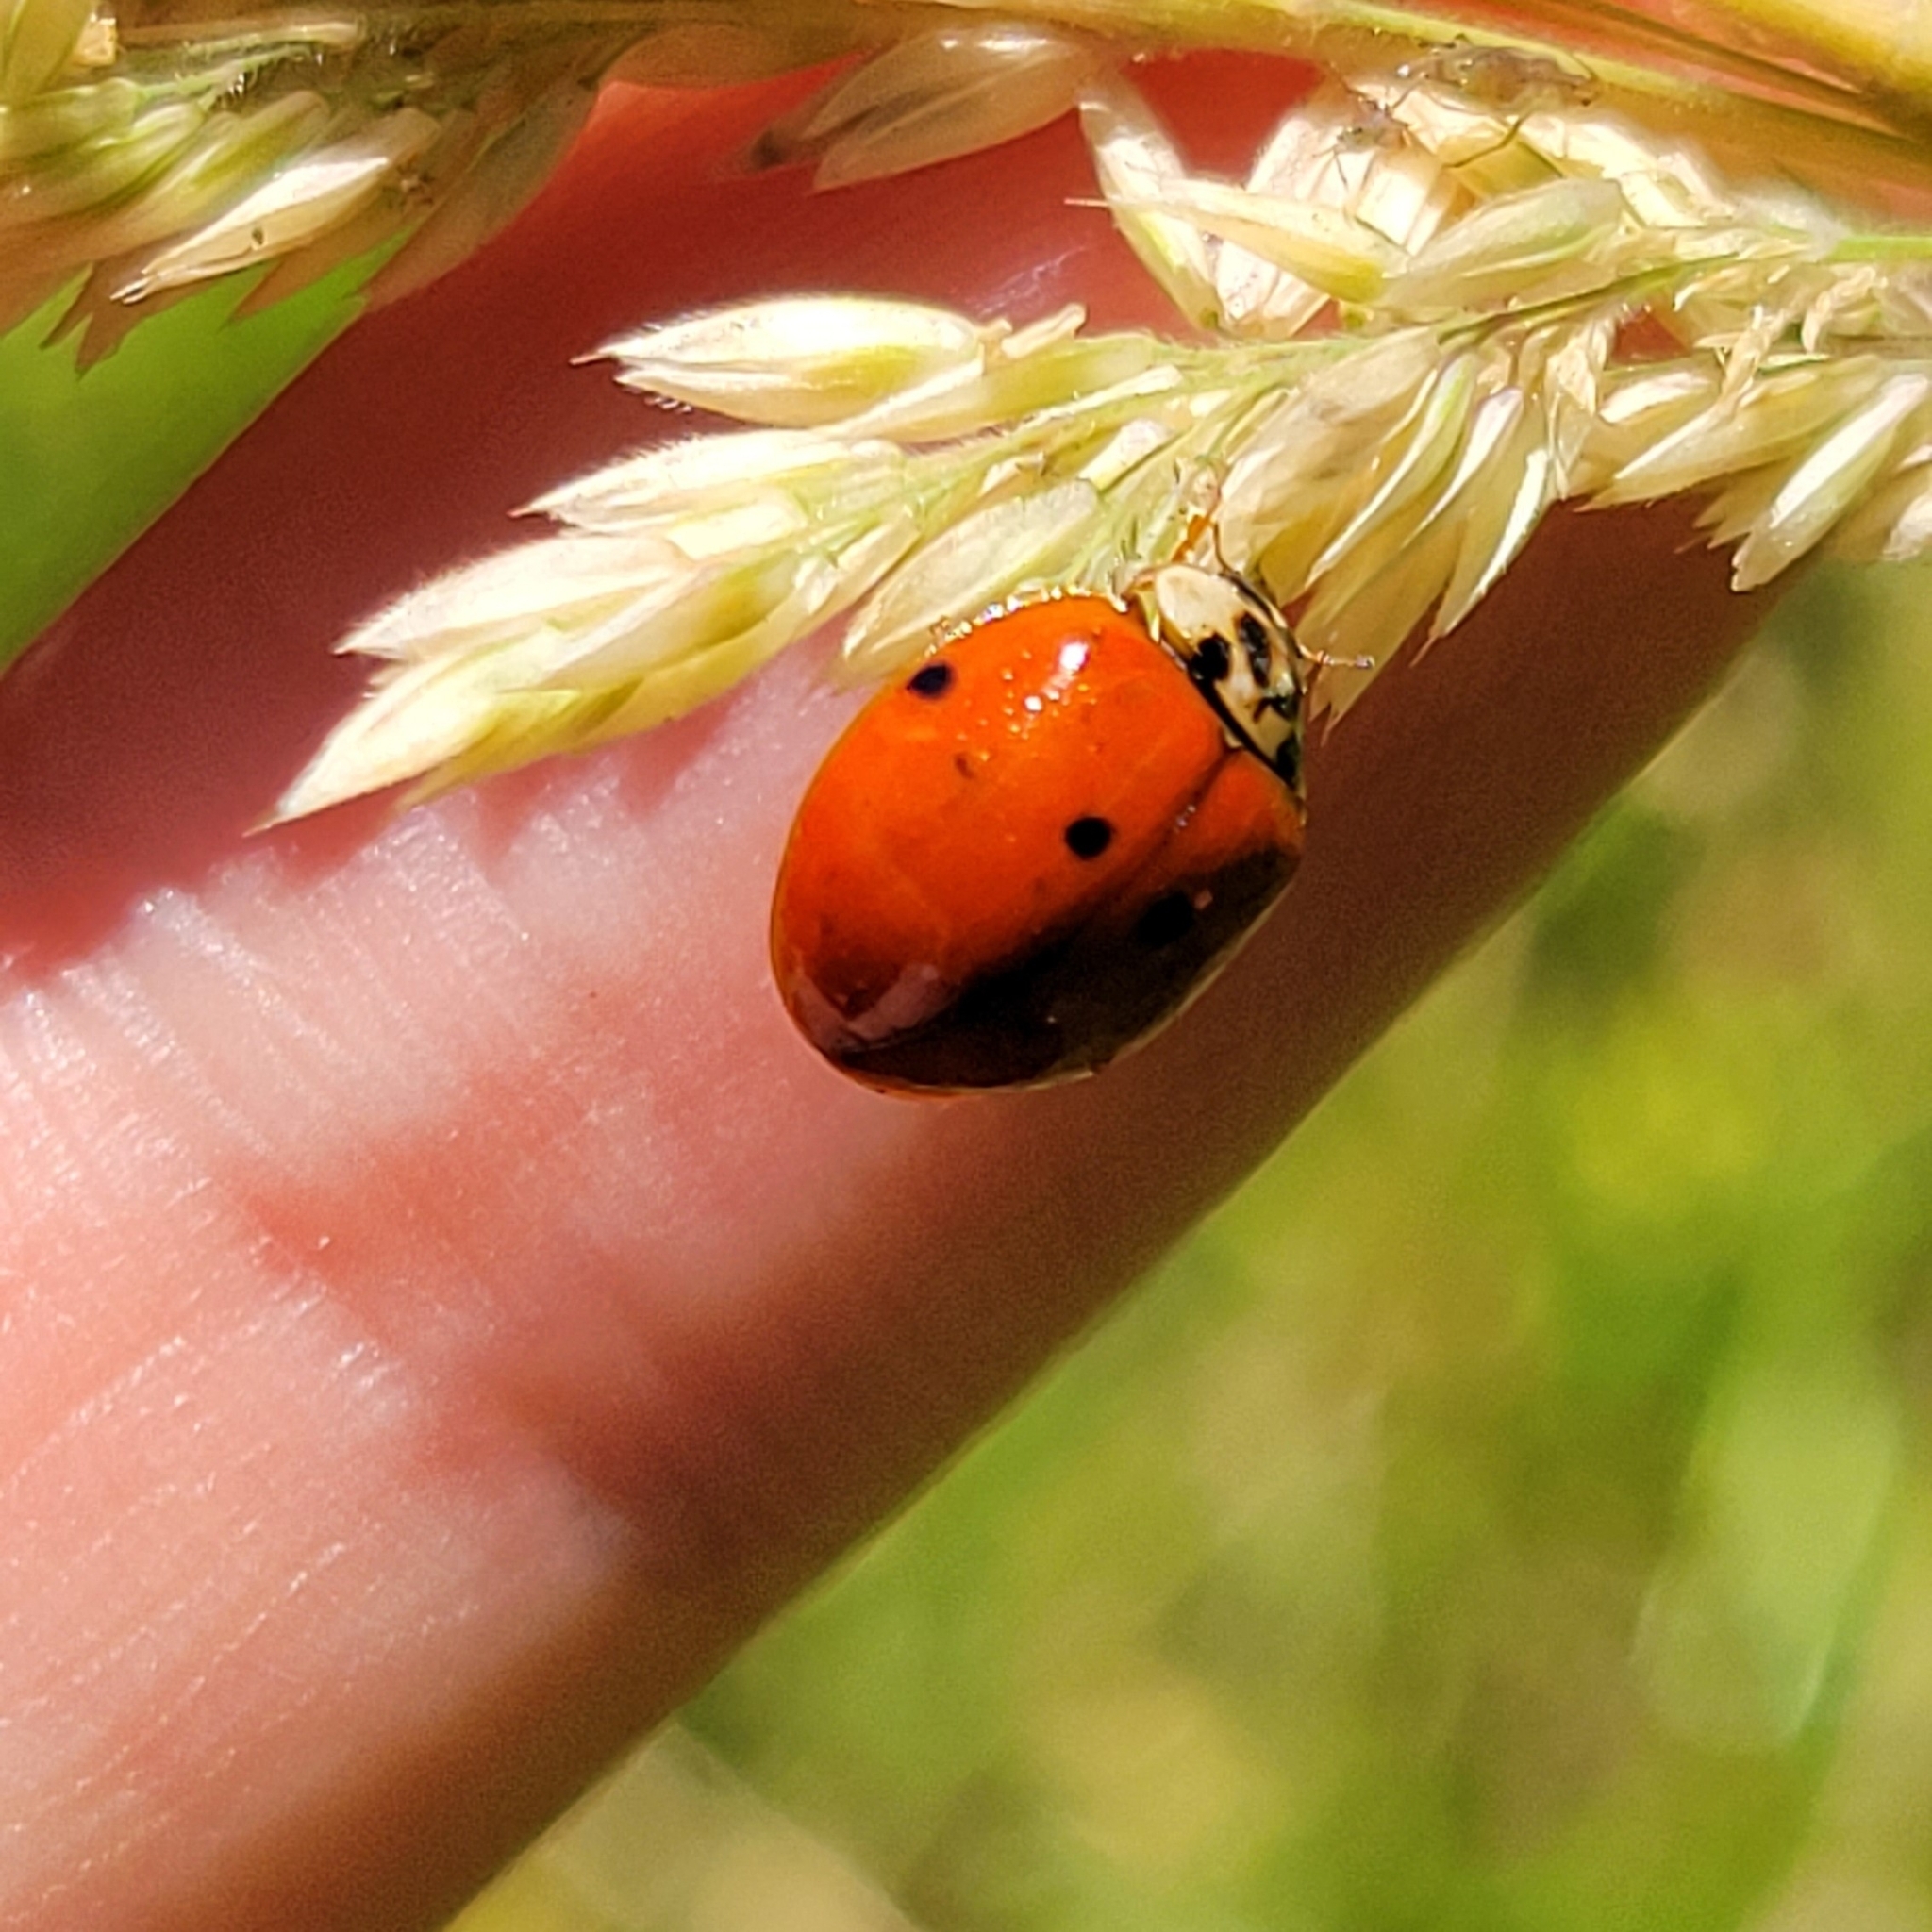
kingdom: Animalia
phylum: Arthropoda
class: Insecta
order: Coleoptera
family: Coccinellidae
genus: Harmonia
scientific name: Harmonia axyridis
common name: Harlequin ladybird
